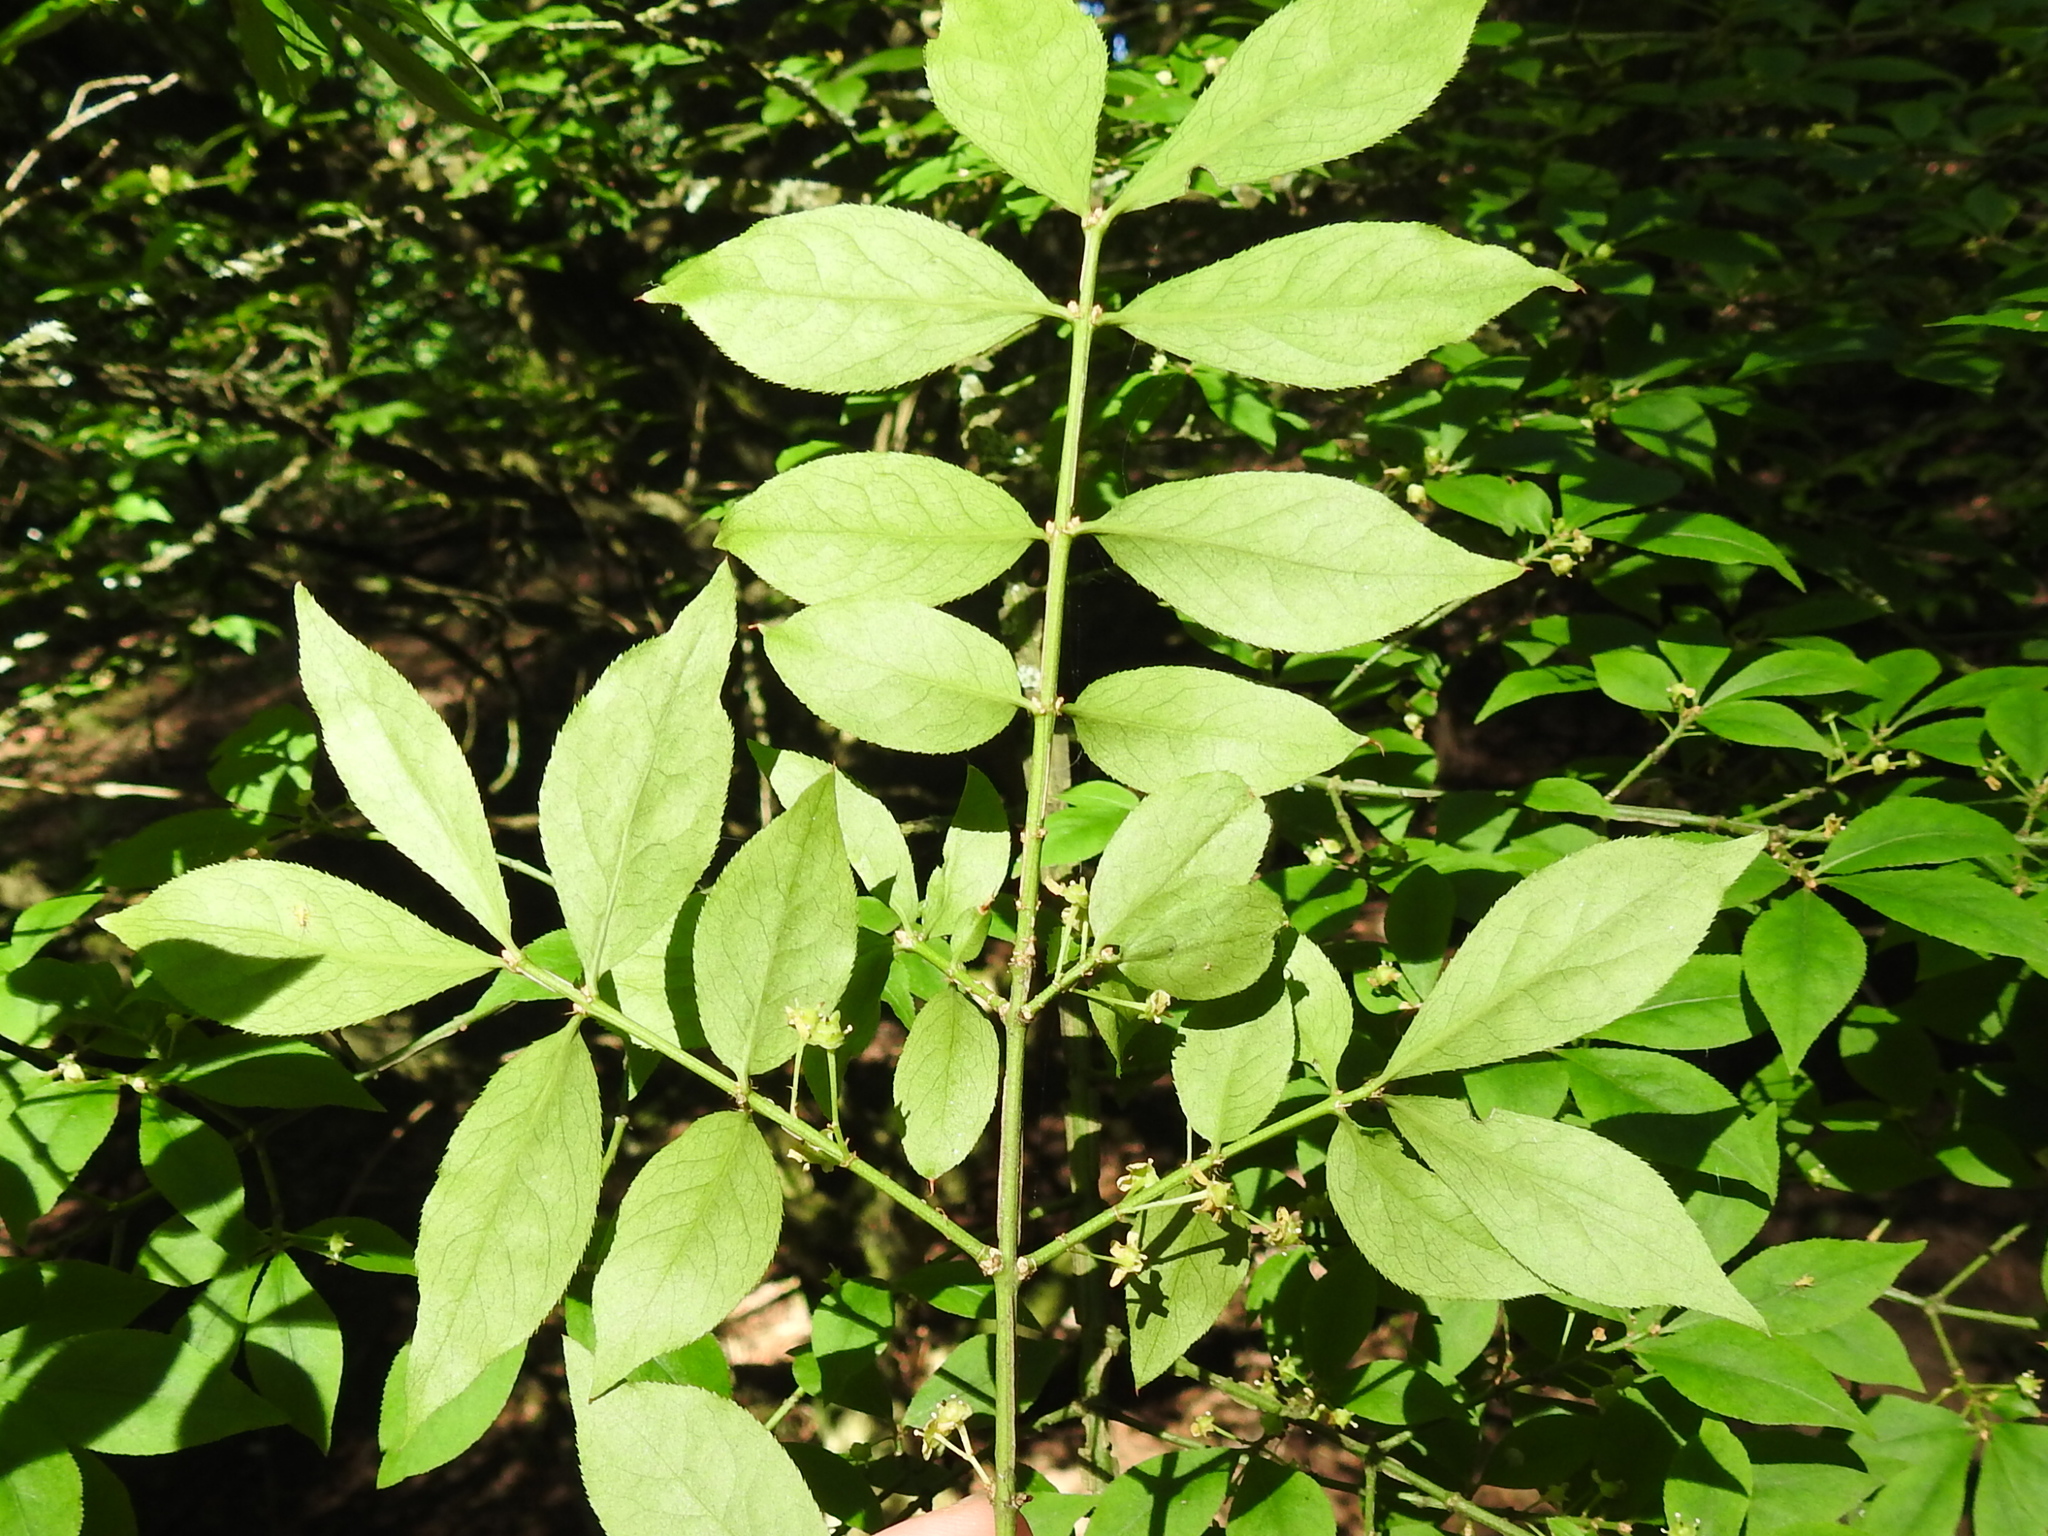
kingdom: Plantae
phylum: Tracheophyta
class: Magnoliopsida
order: Celastrales
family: Celastraceae
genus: Euonymus
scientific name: Euonymus alatus
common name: Winged euonymus
